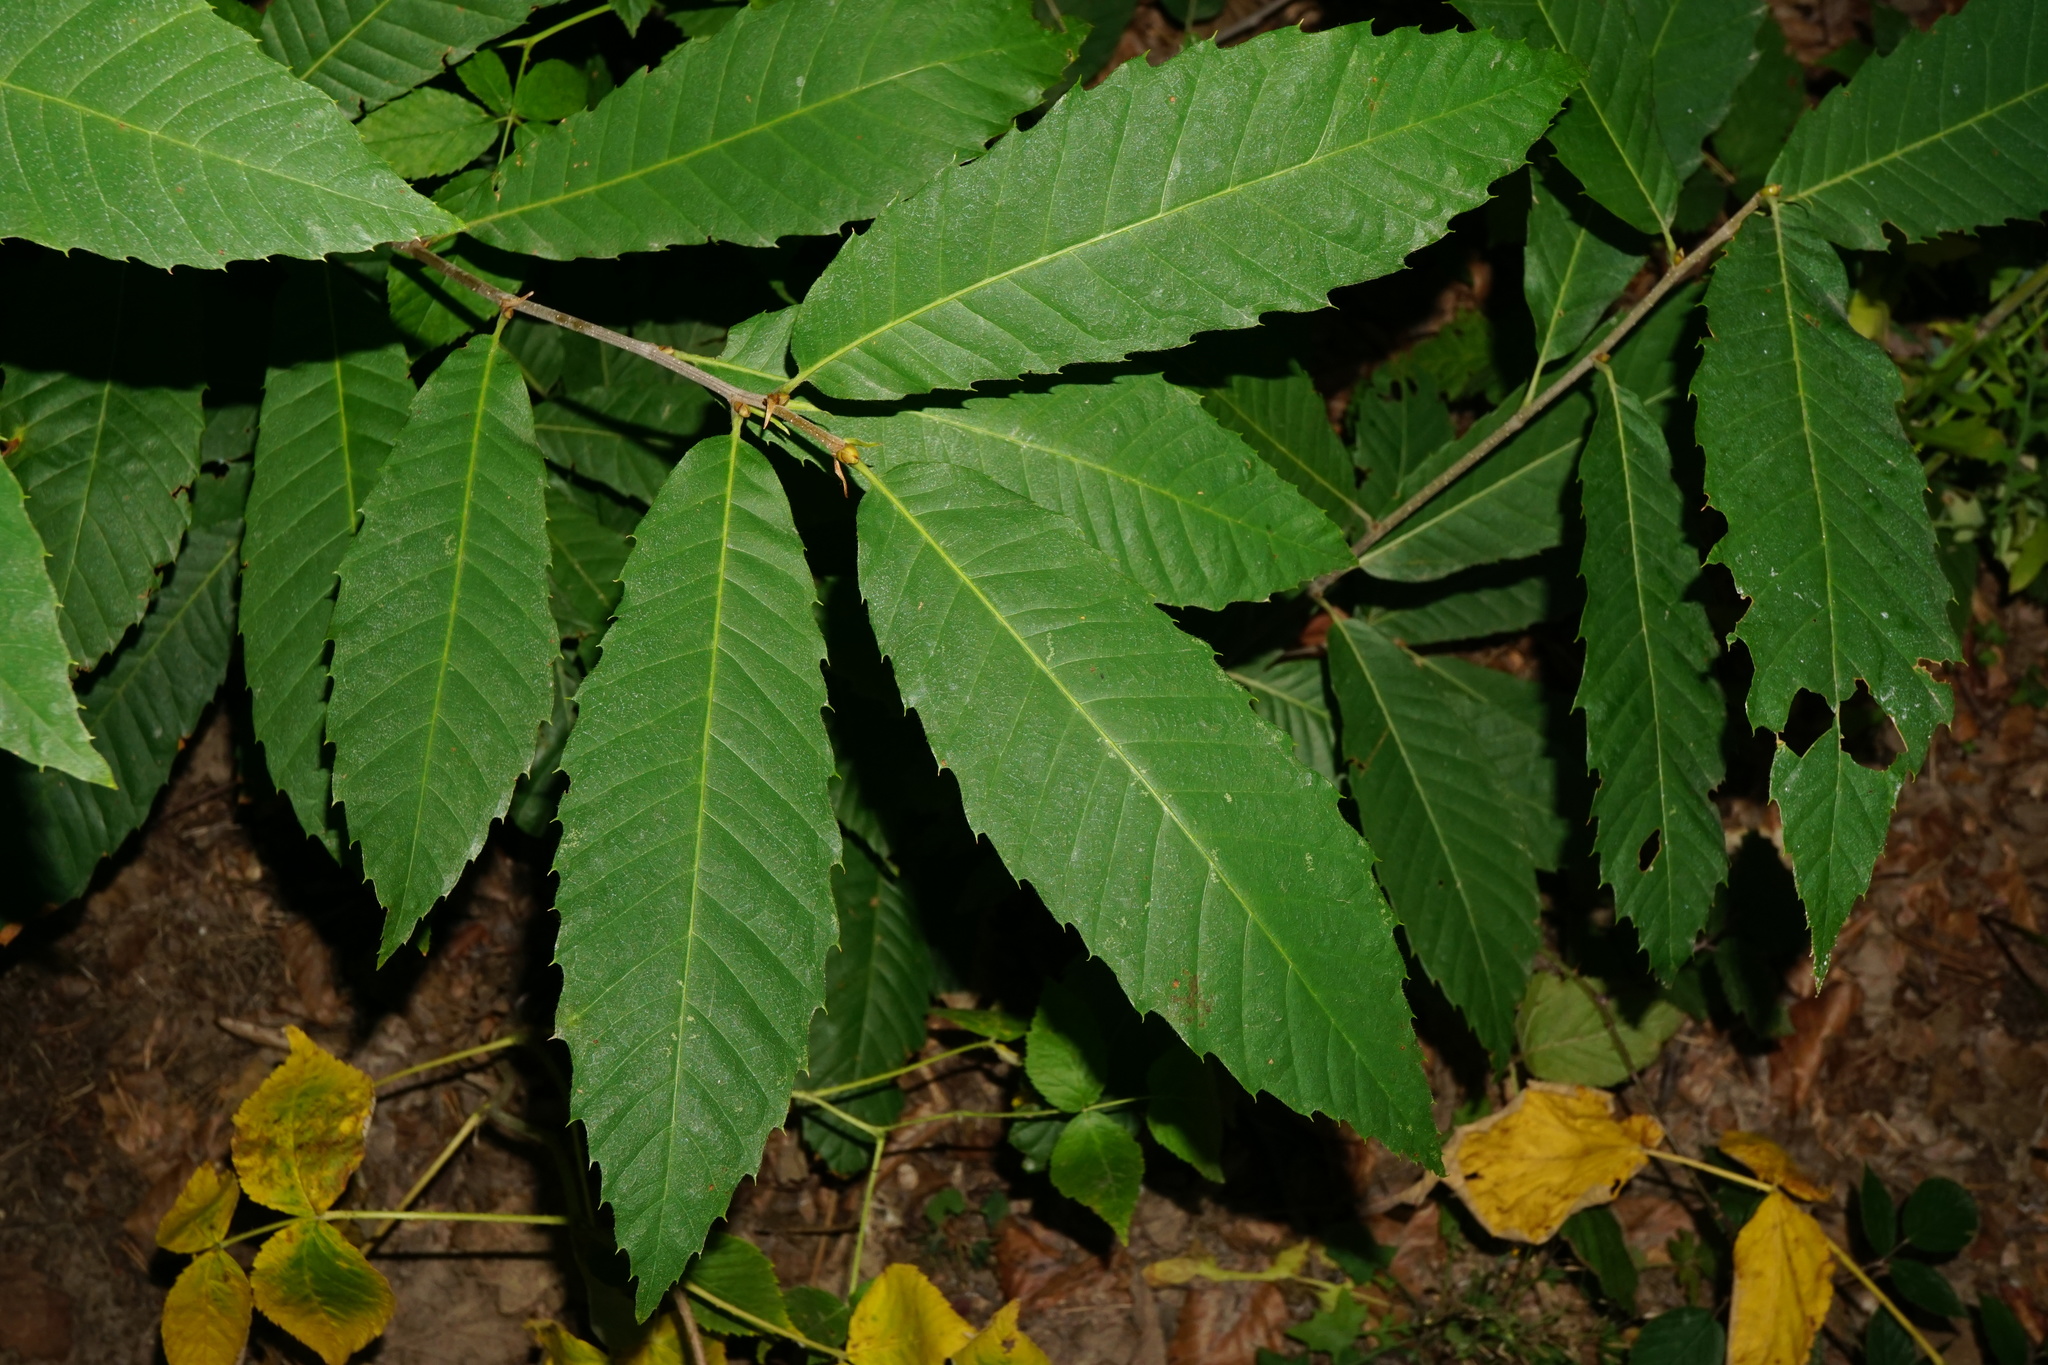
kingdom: Plantae
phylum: Tracheophyta
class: Magnoliopsida
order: Fagales
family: Fagaceae
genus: Castanea
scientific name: Castanea sativa
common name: Sweet chestnut
